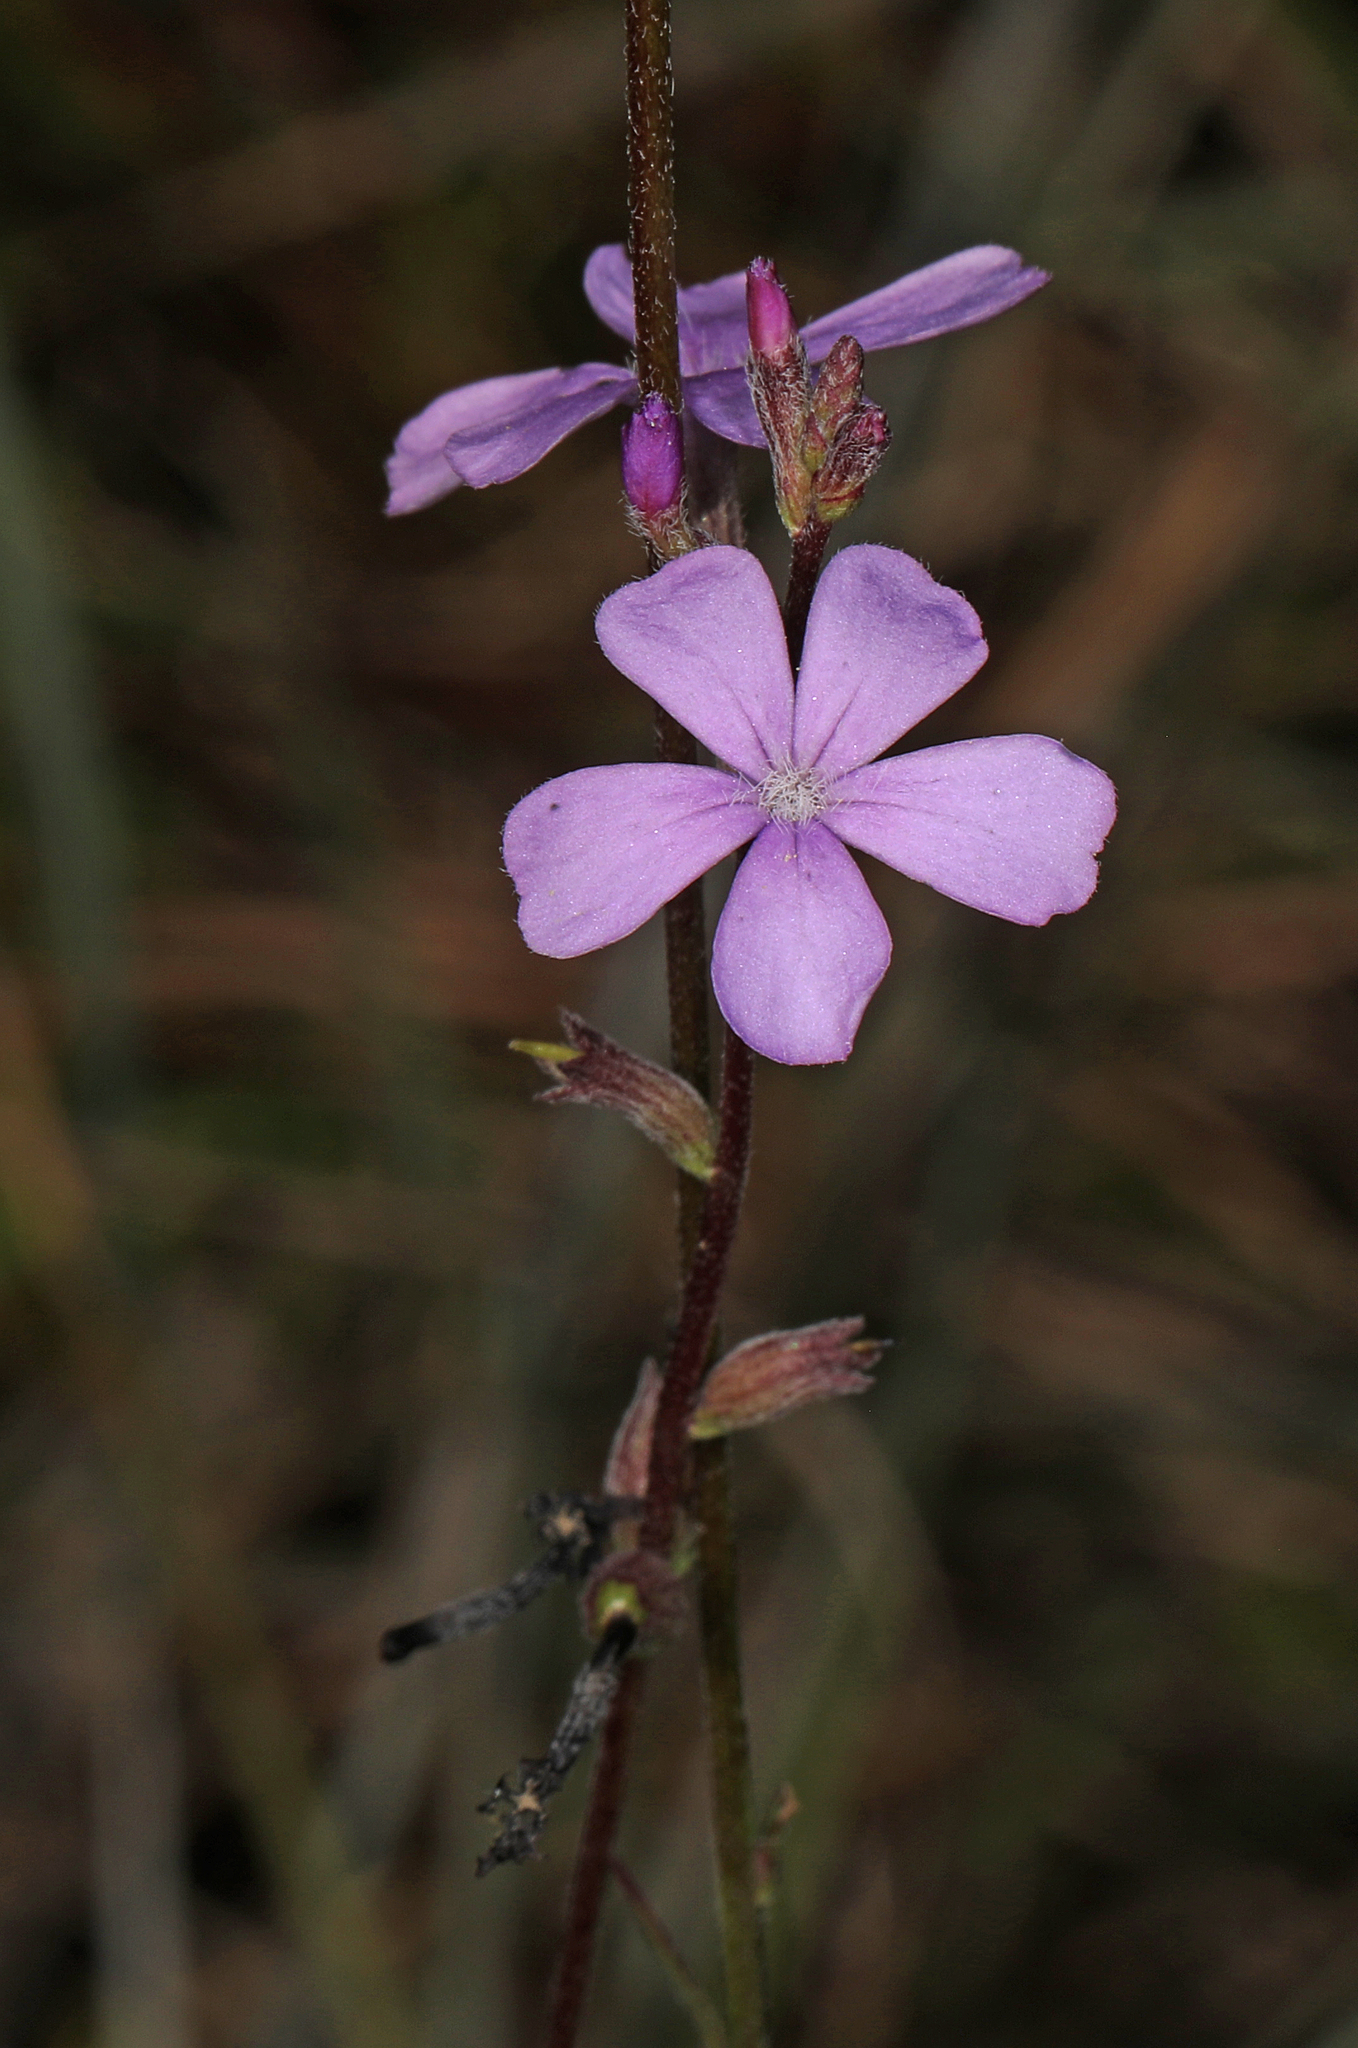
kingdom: Plantae
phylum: Tracheophyta
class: Magnoliopsida
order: Lamiales
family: Orobanchaceae
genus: Buchnera
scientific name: Buchnera floridana
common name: Florida bluehearts
